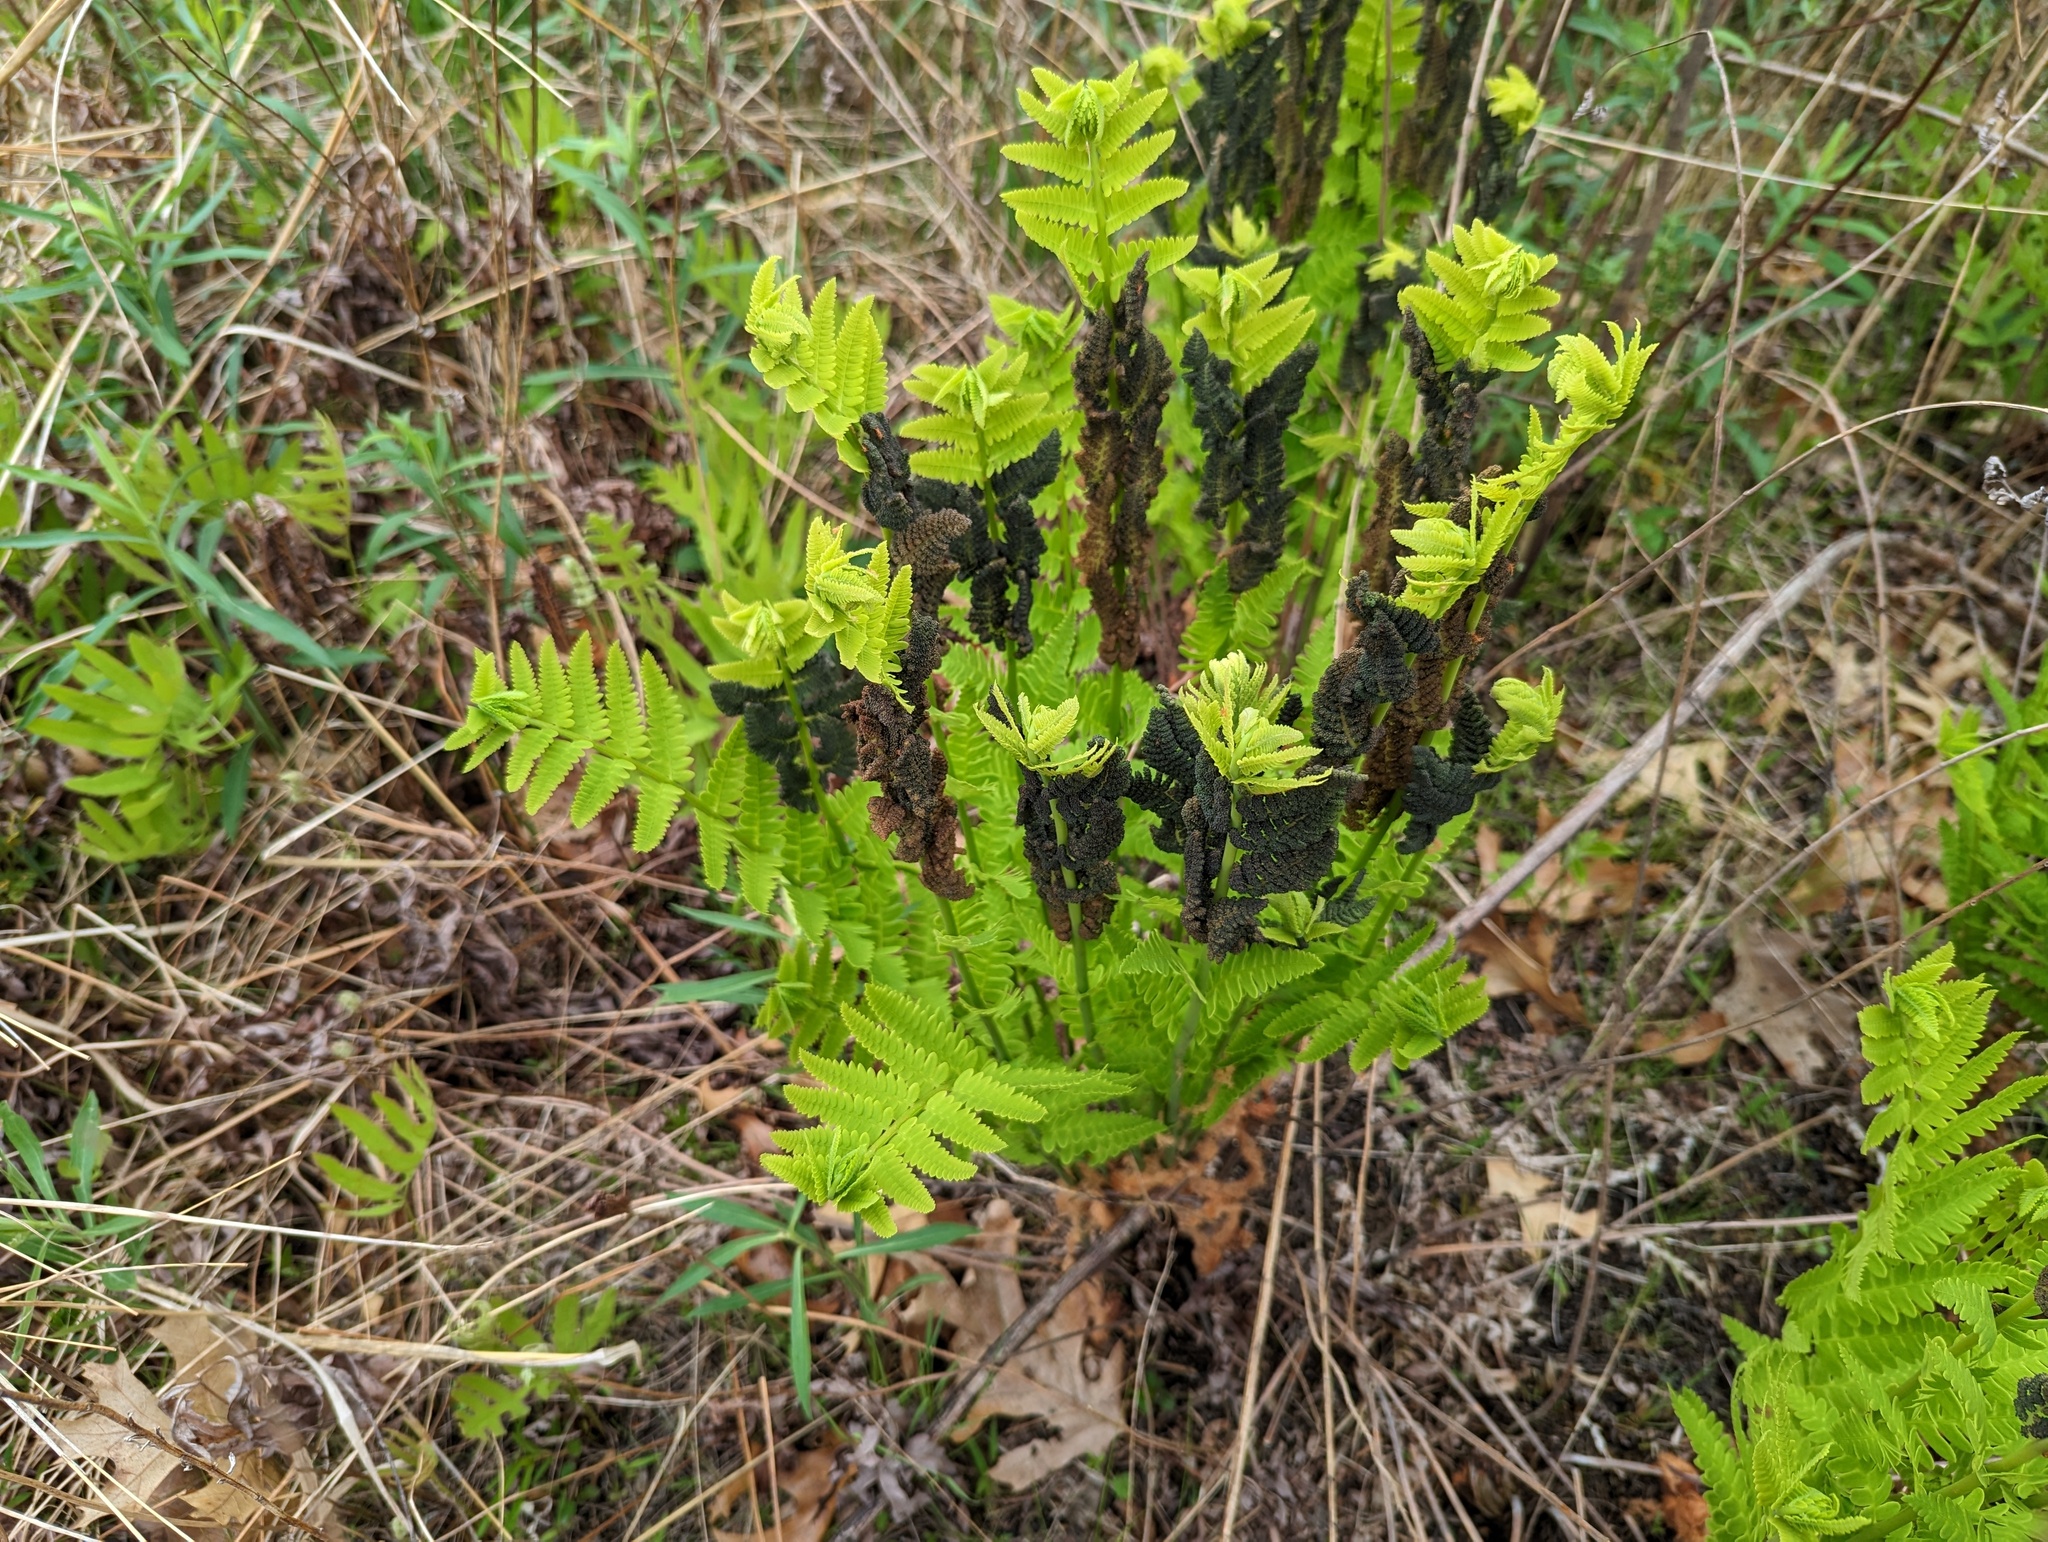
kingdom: Plantae
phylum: Tracheophyta
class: Polypodiopsida
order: Osmundales
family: Osmundaceae
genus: Claytosmunda
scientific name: Claytosmunda claytoniana
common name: Clayton's fern
